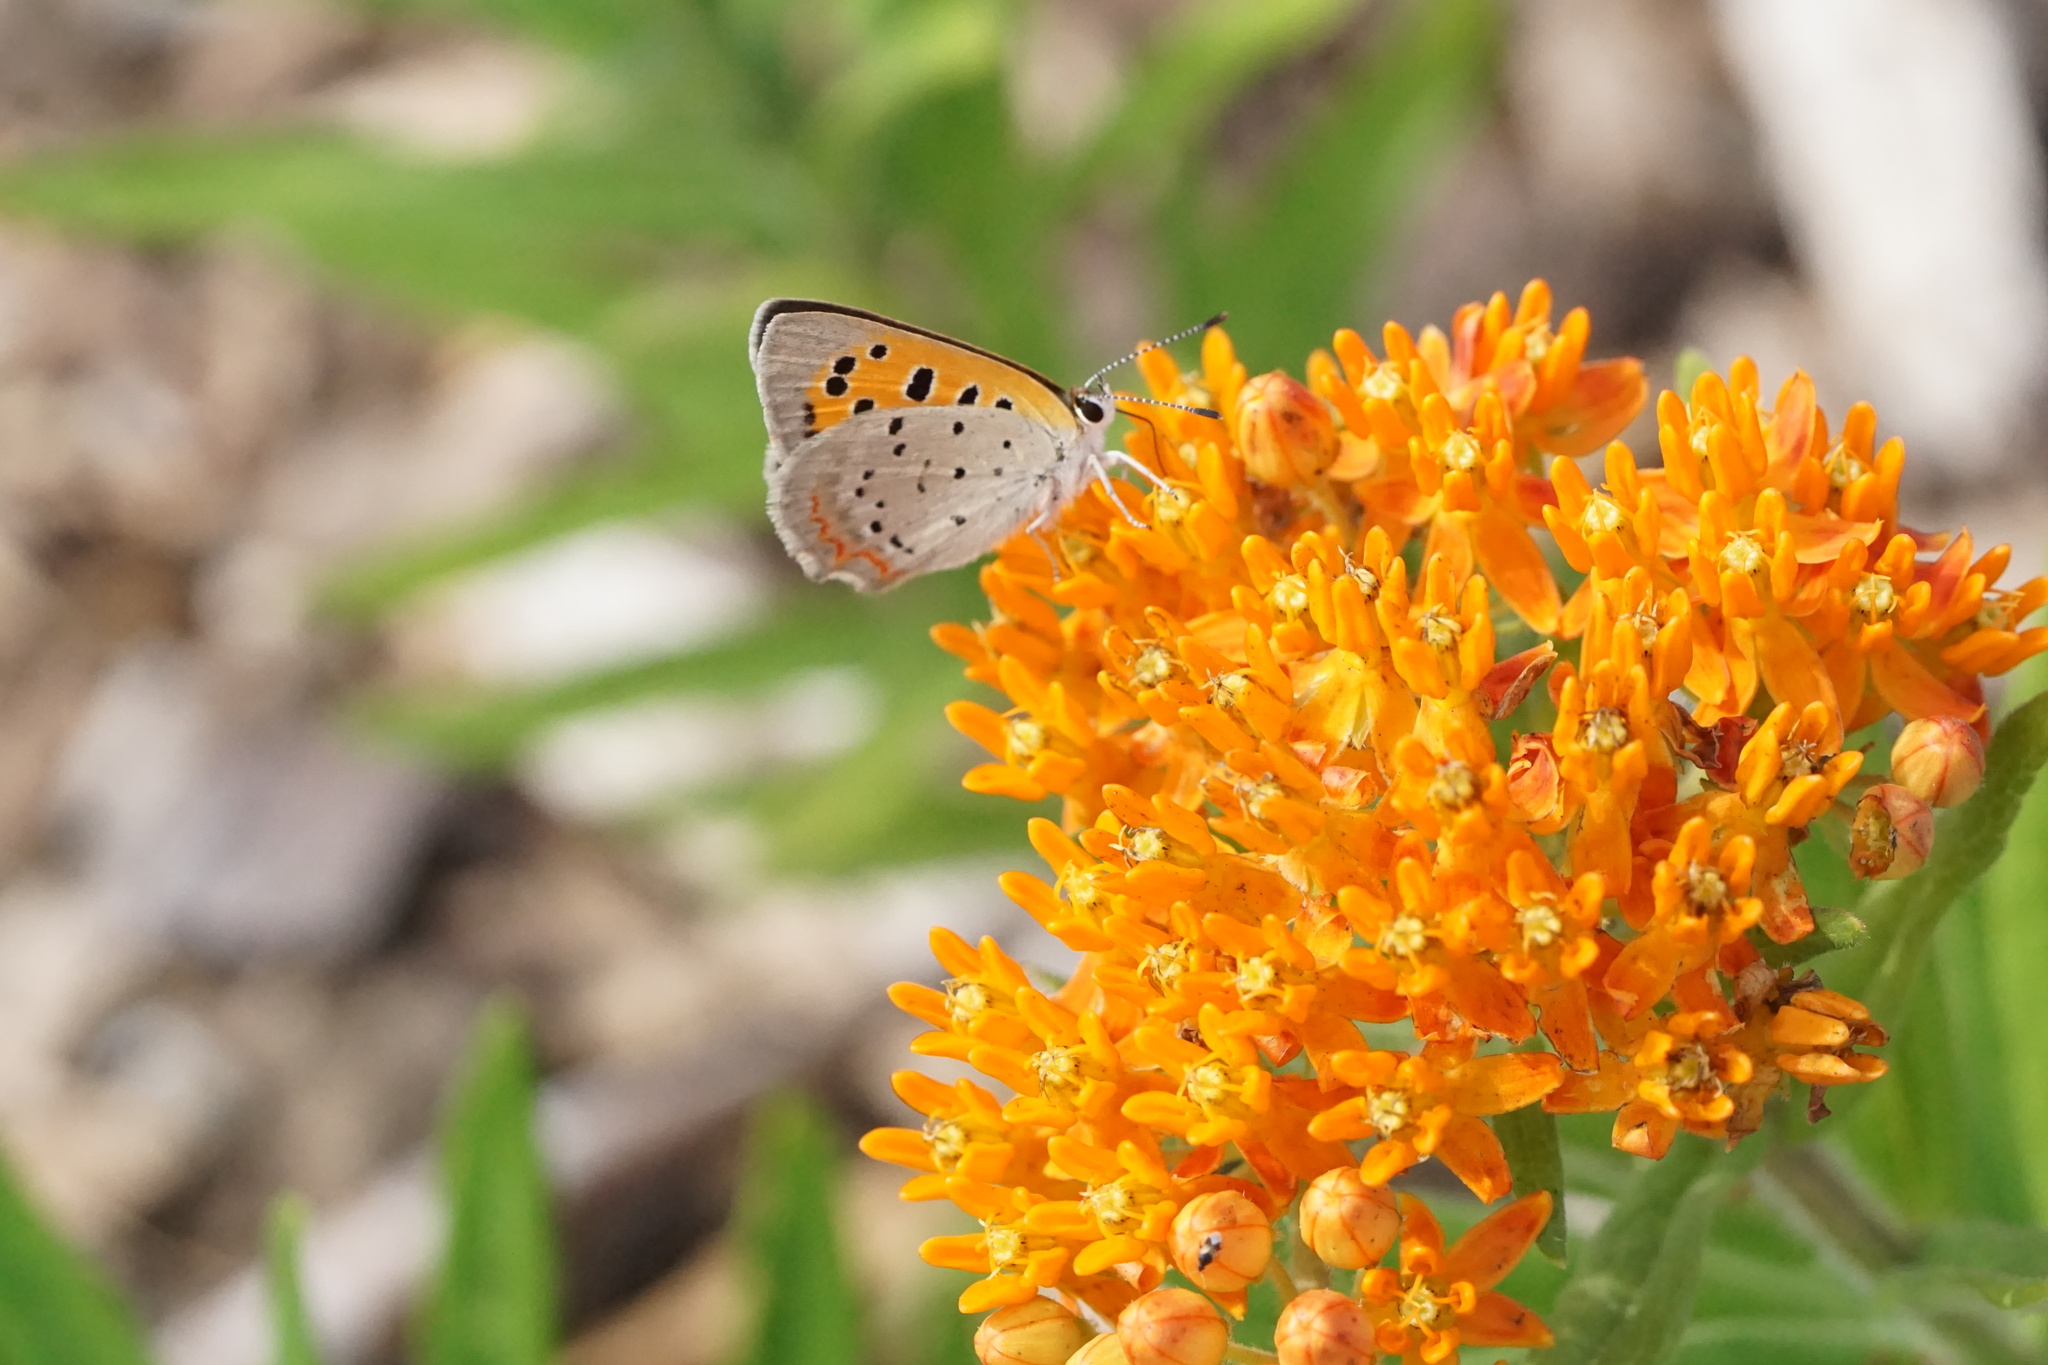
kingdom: Animalia
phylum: Arthropoda
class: Insecta
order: Lepidoptera
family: Lycaenidae
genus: Lycaena
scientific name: Lycaena hypophlaeas
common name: American copper
